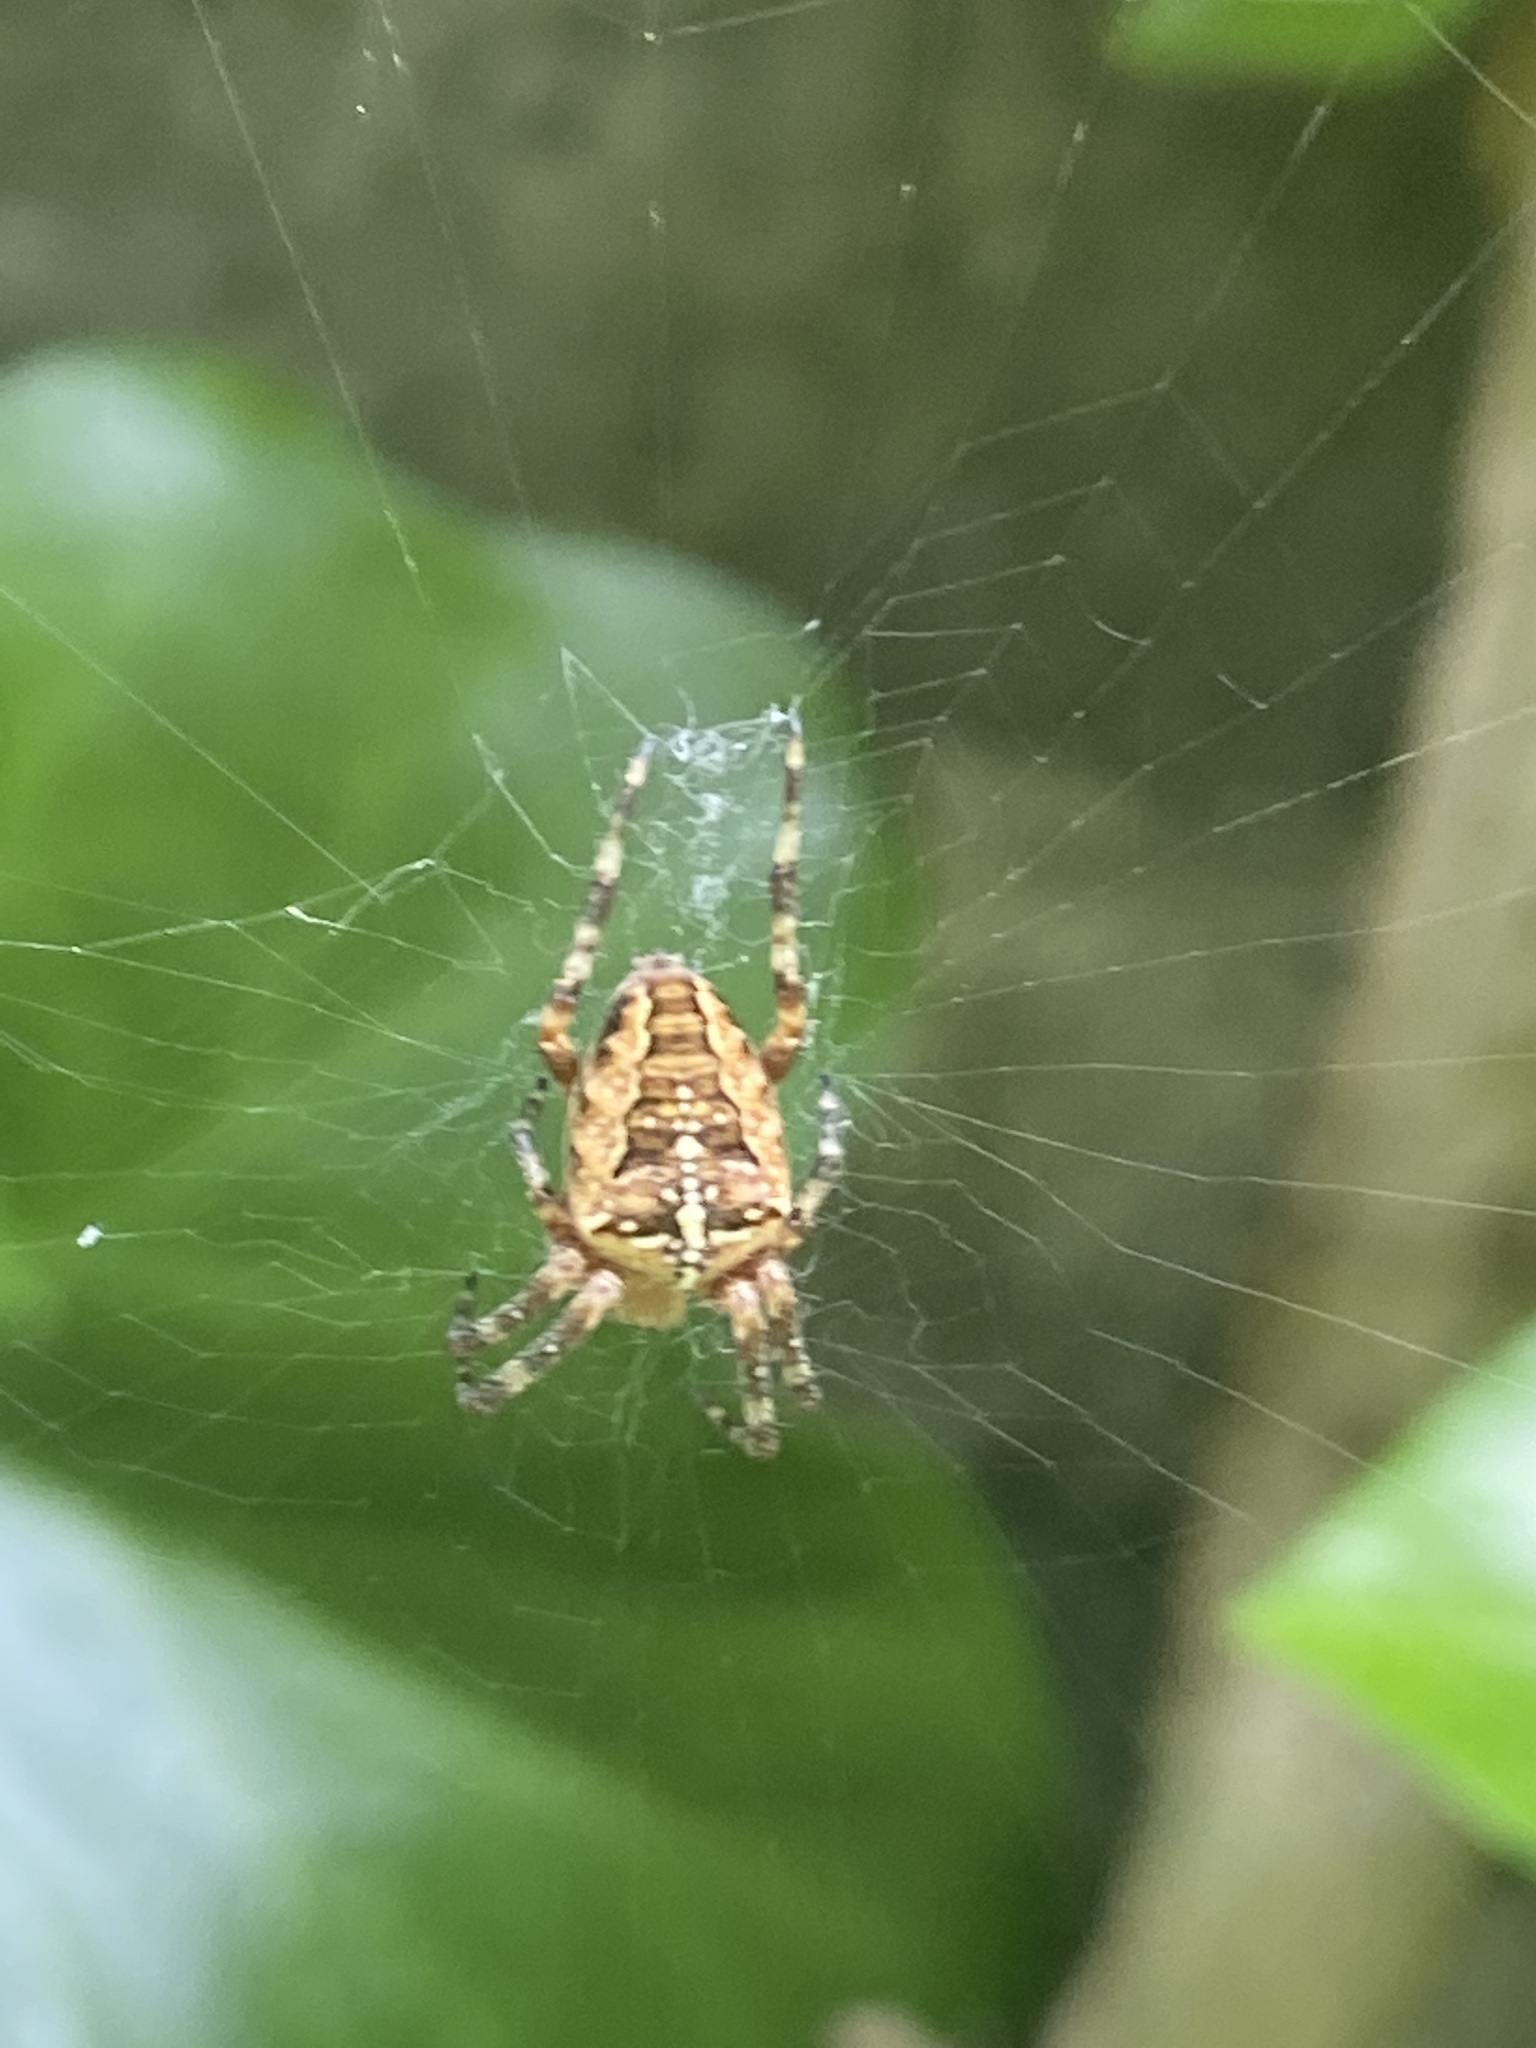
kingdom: Animalia
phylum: Arthropoda
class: Arachnida
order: Araneae
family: Araneidae
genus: Araneus
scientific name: Araneus diadematus
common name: Cross orbweaver
